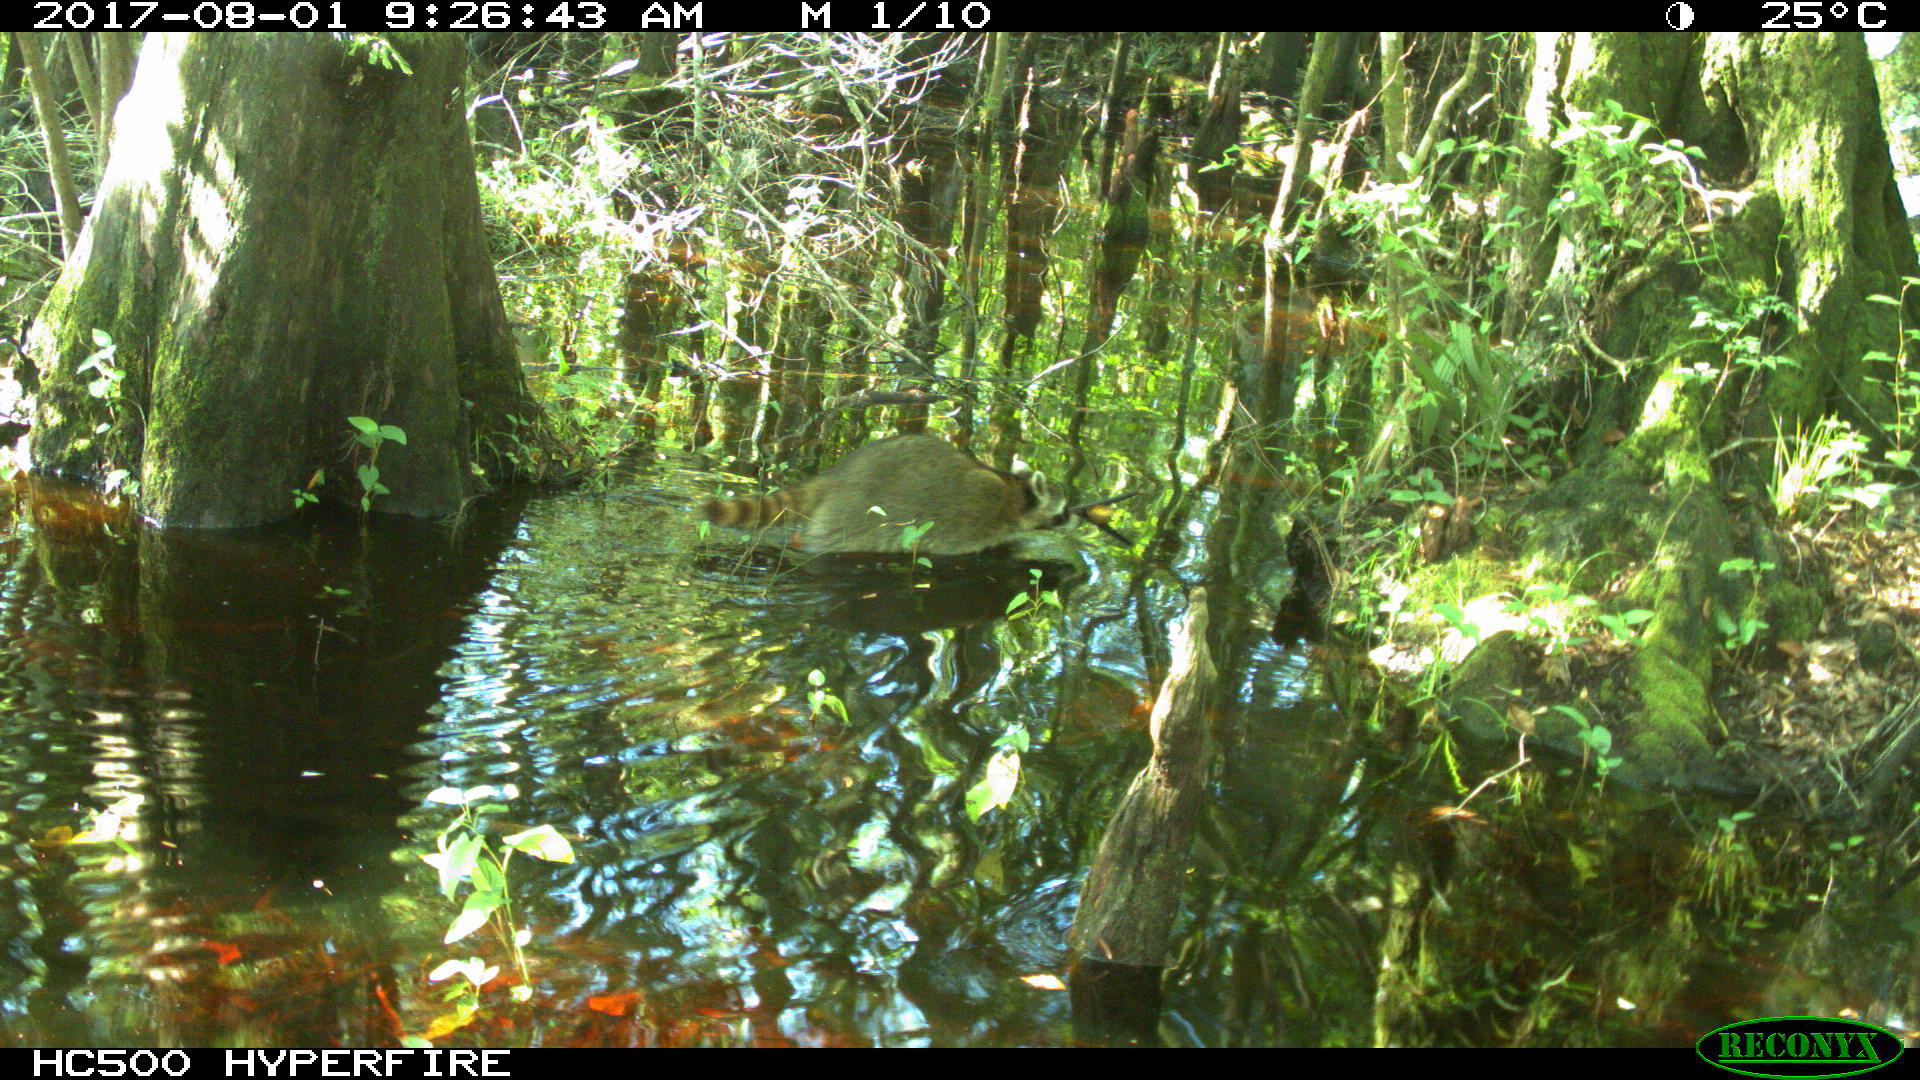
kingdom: Animalia
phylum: Chordata
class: Mammalia
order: Carnivora
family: Procyonidae
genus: Procyon
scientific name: Procyon lotor
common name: Raccoon
